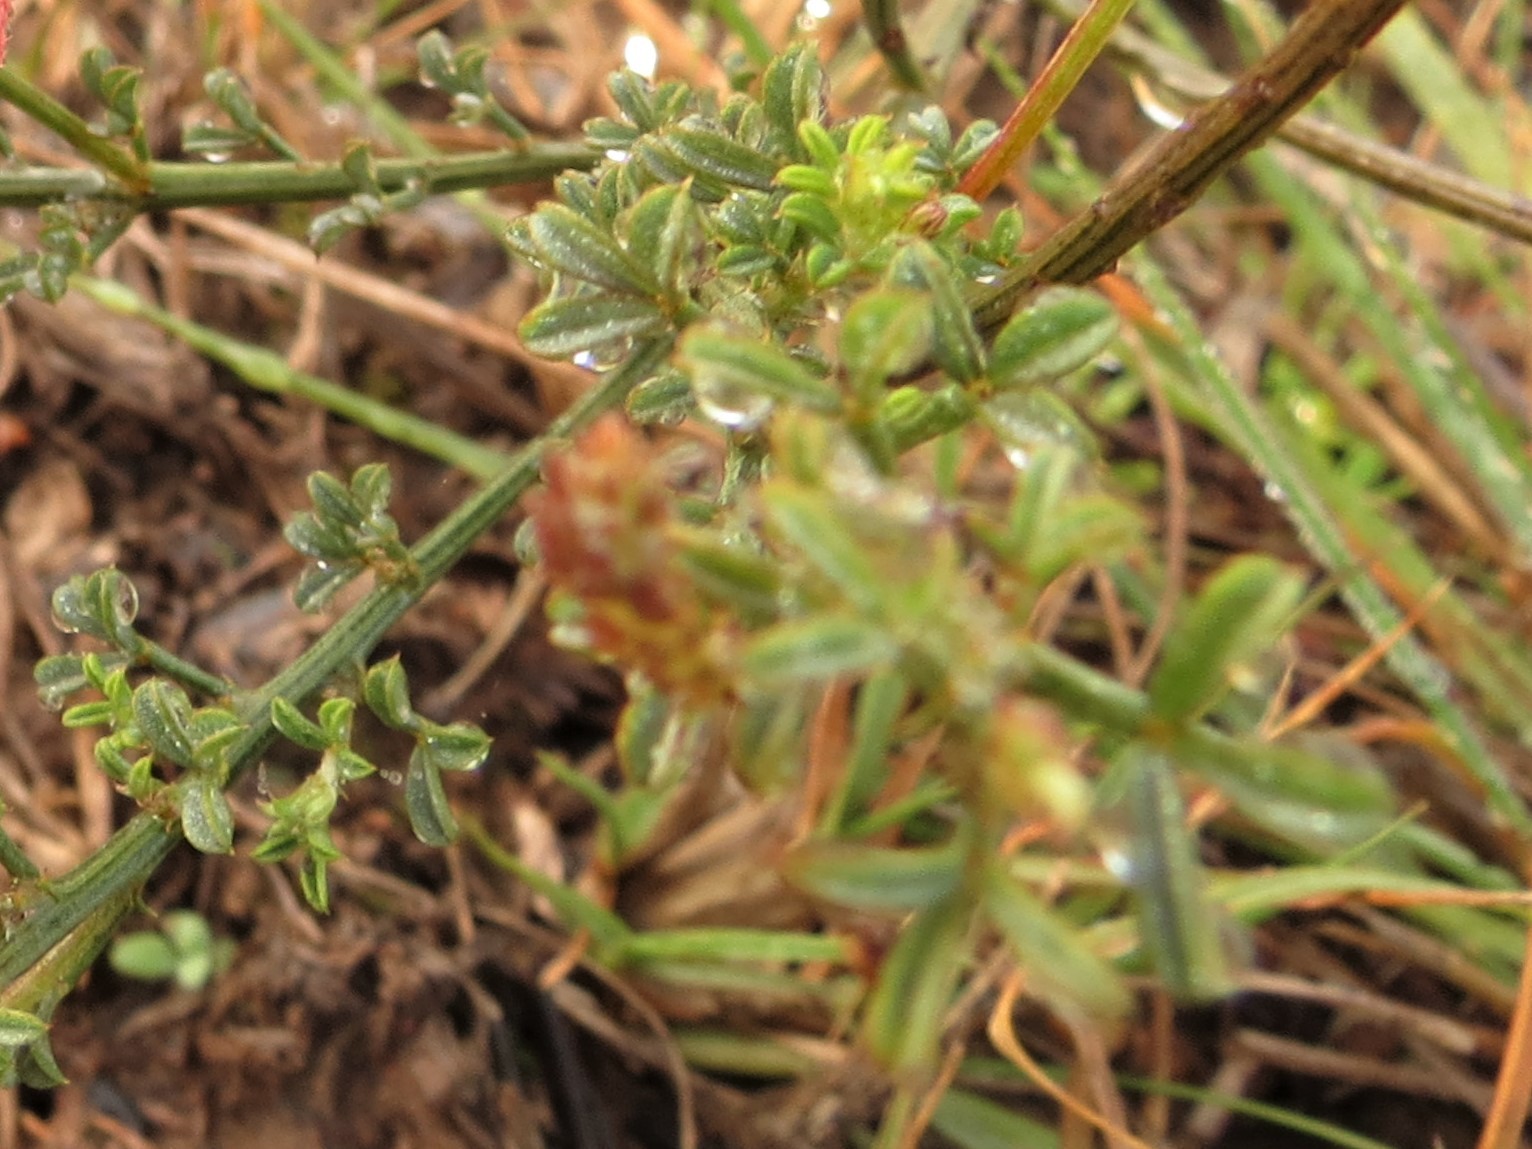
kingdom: Plantae
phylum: Tracheophyta
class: Magnoliopsida
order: Fabales
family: Fabaceae
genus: Indigofera
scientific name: Indigofera heterophylla
